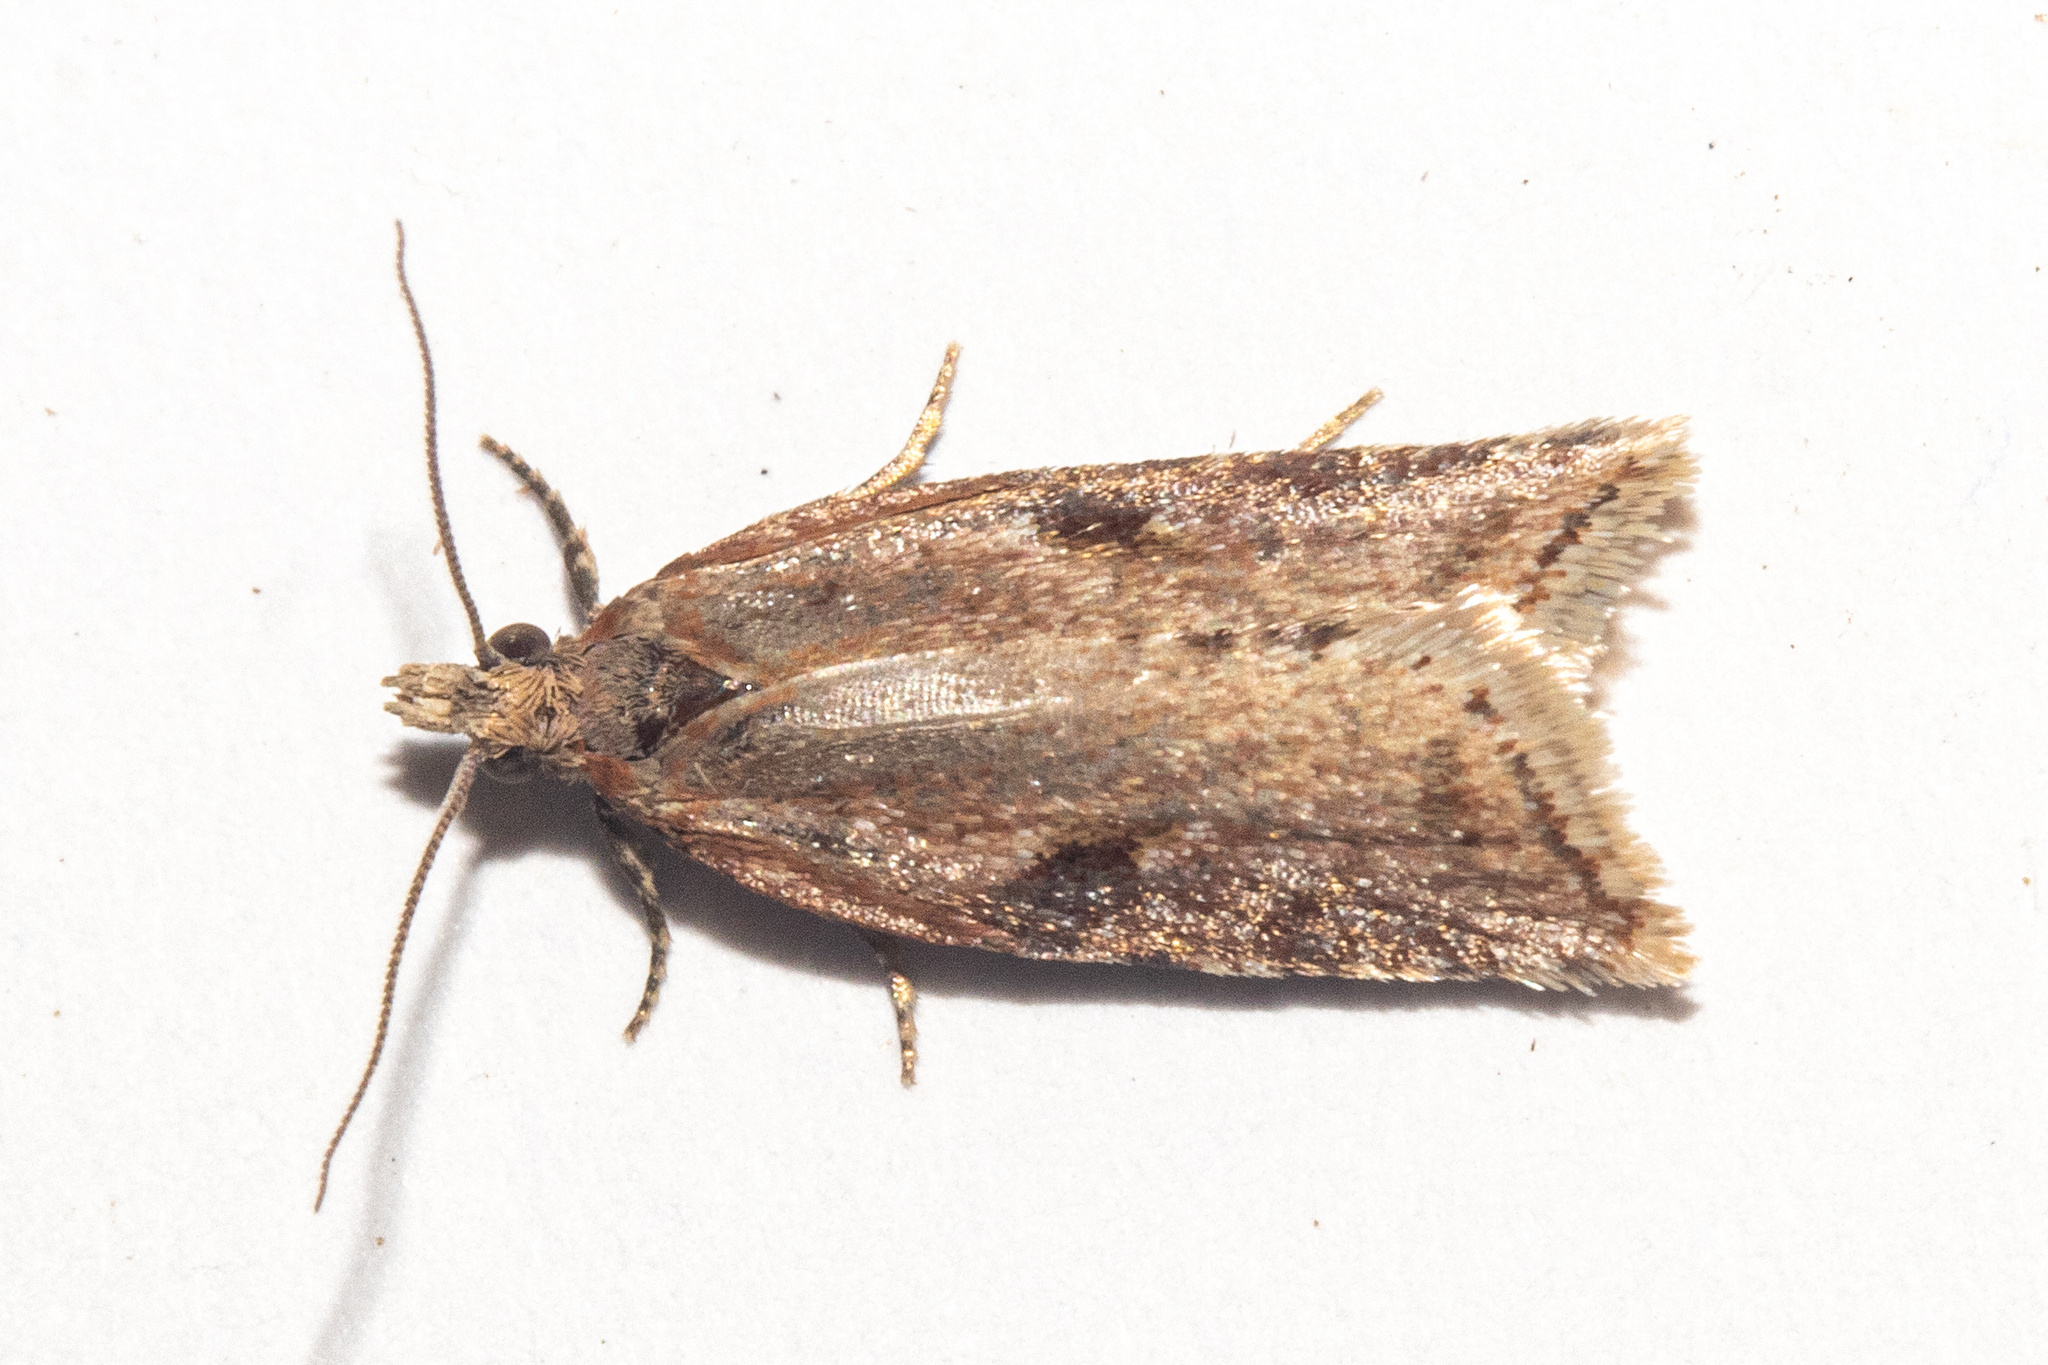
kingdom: Animalia
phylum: Arthropoda
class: Insecta
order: Lepidoptera
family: Tortricidae
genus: Capua
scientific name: Capua semiferana
